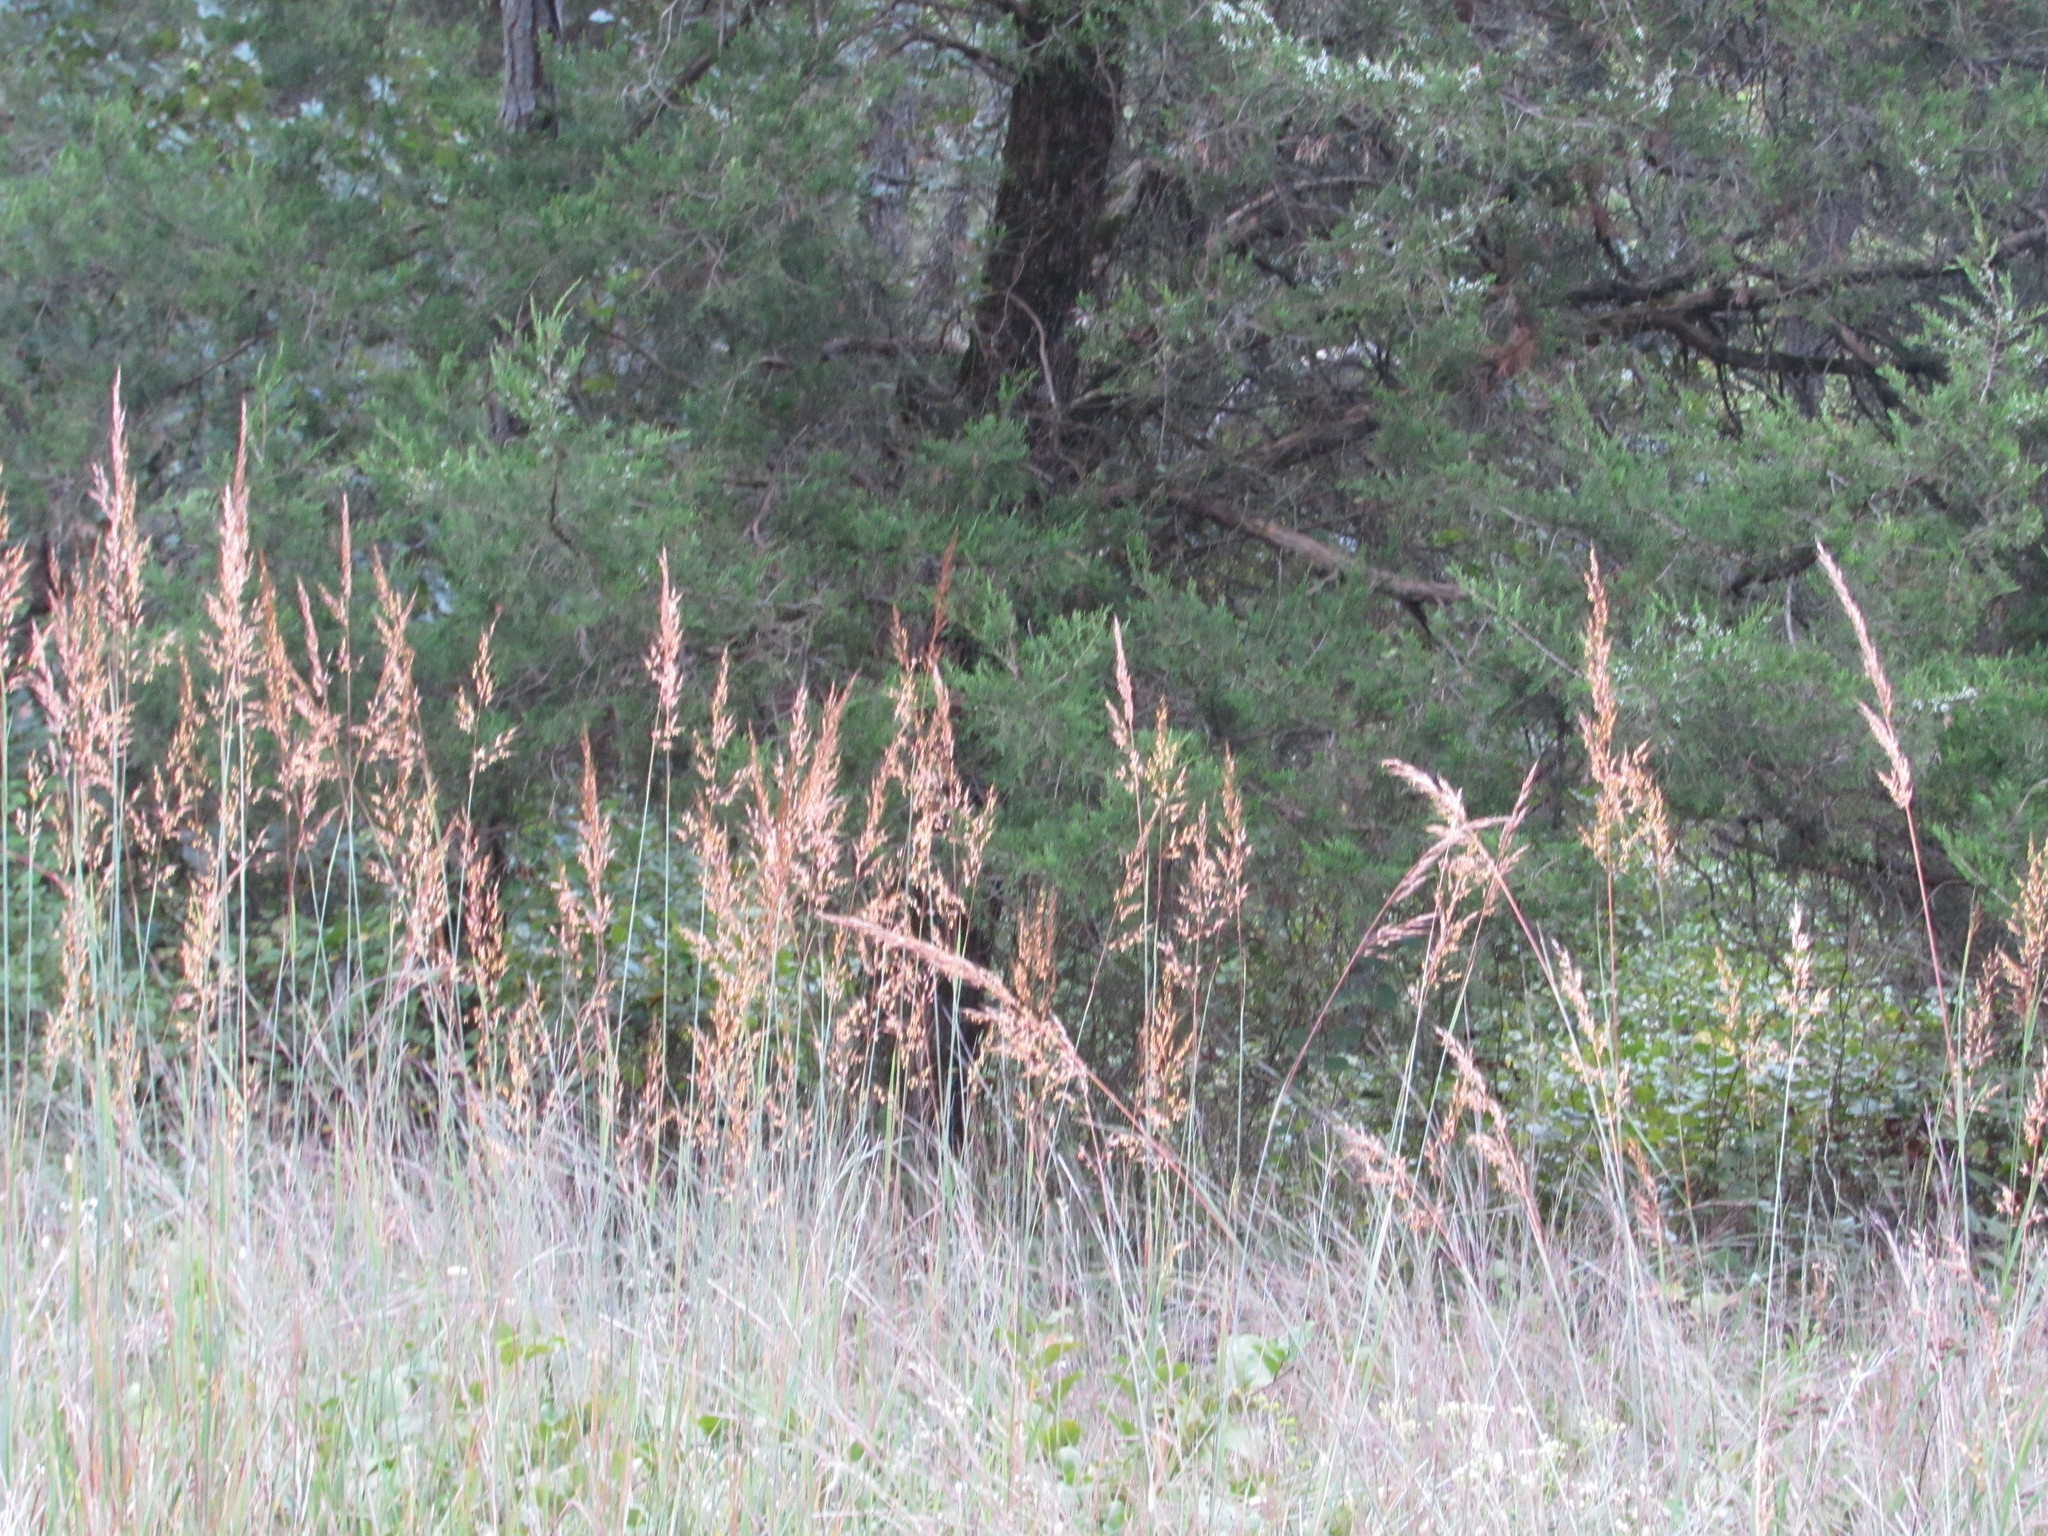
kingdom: Plantae
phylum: Tracheophyta
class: Liliopsida
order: Poales
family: Poaceae
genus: Sorghastrum
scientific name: Sorghastrum nutans
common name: Indian grass
